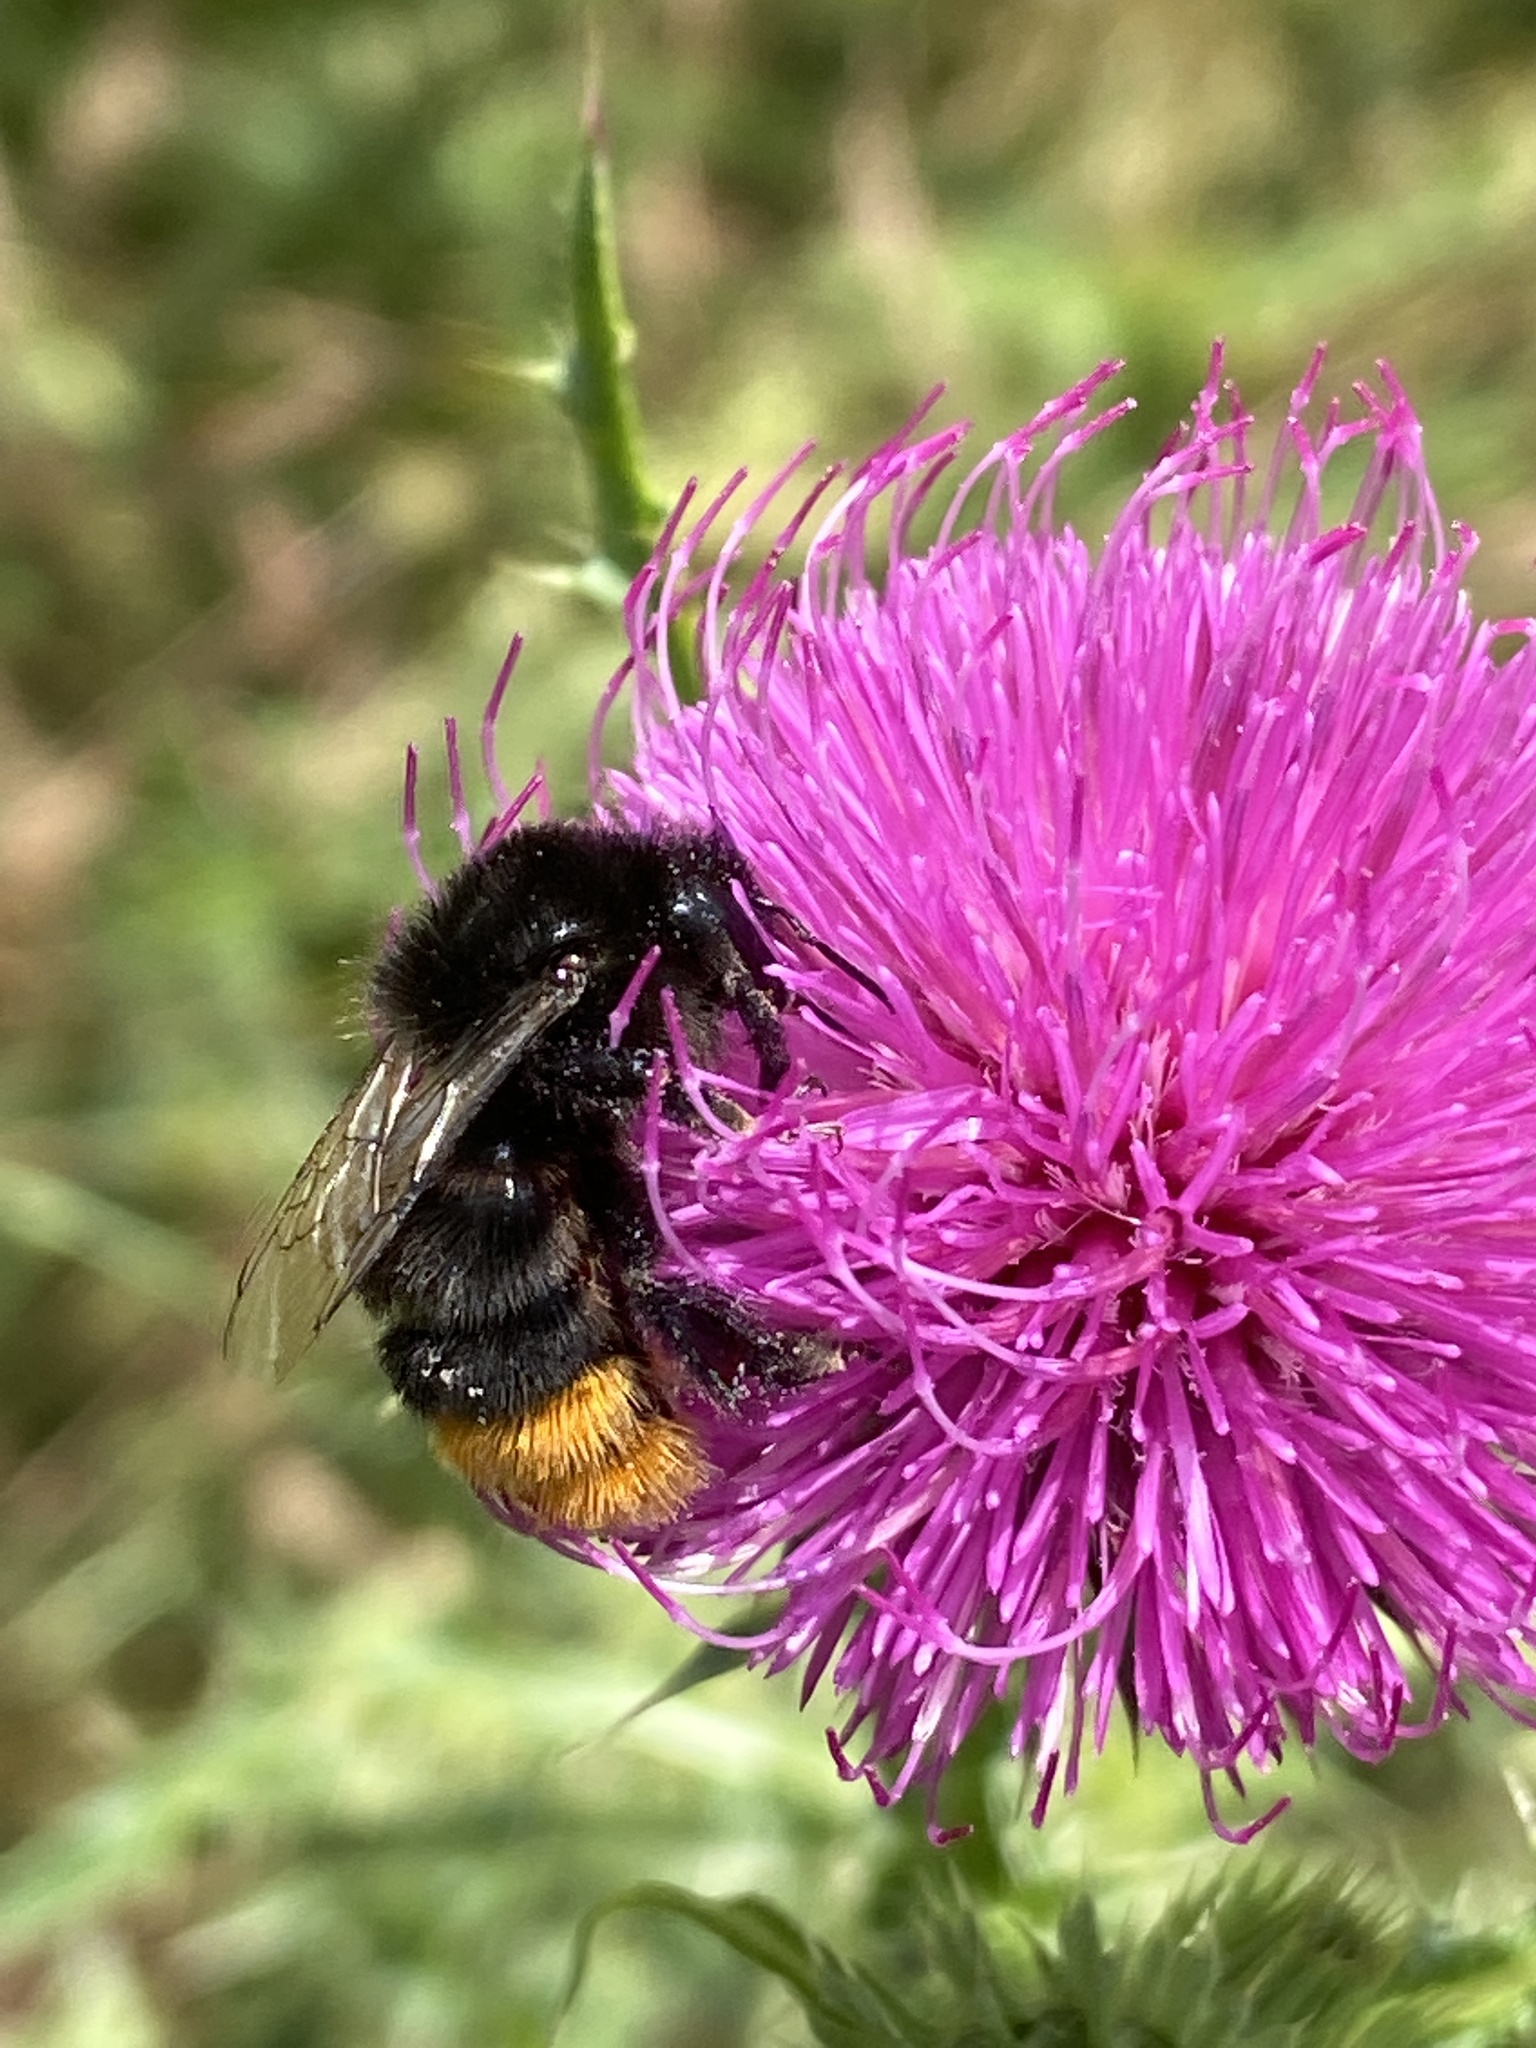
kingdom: Animalia
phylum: Arthropoda
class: Insecta
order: Hymenoptera
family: Apidae
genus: Bombus
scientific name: Bombus lapidarius
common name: Large red-tailed humble-bee
